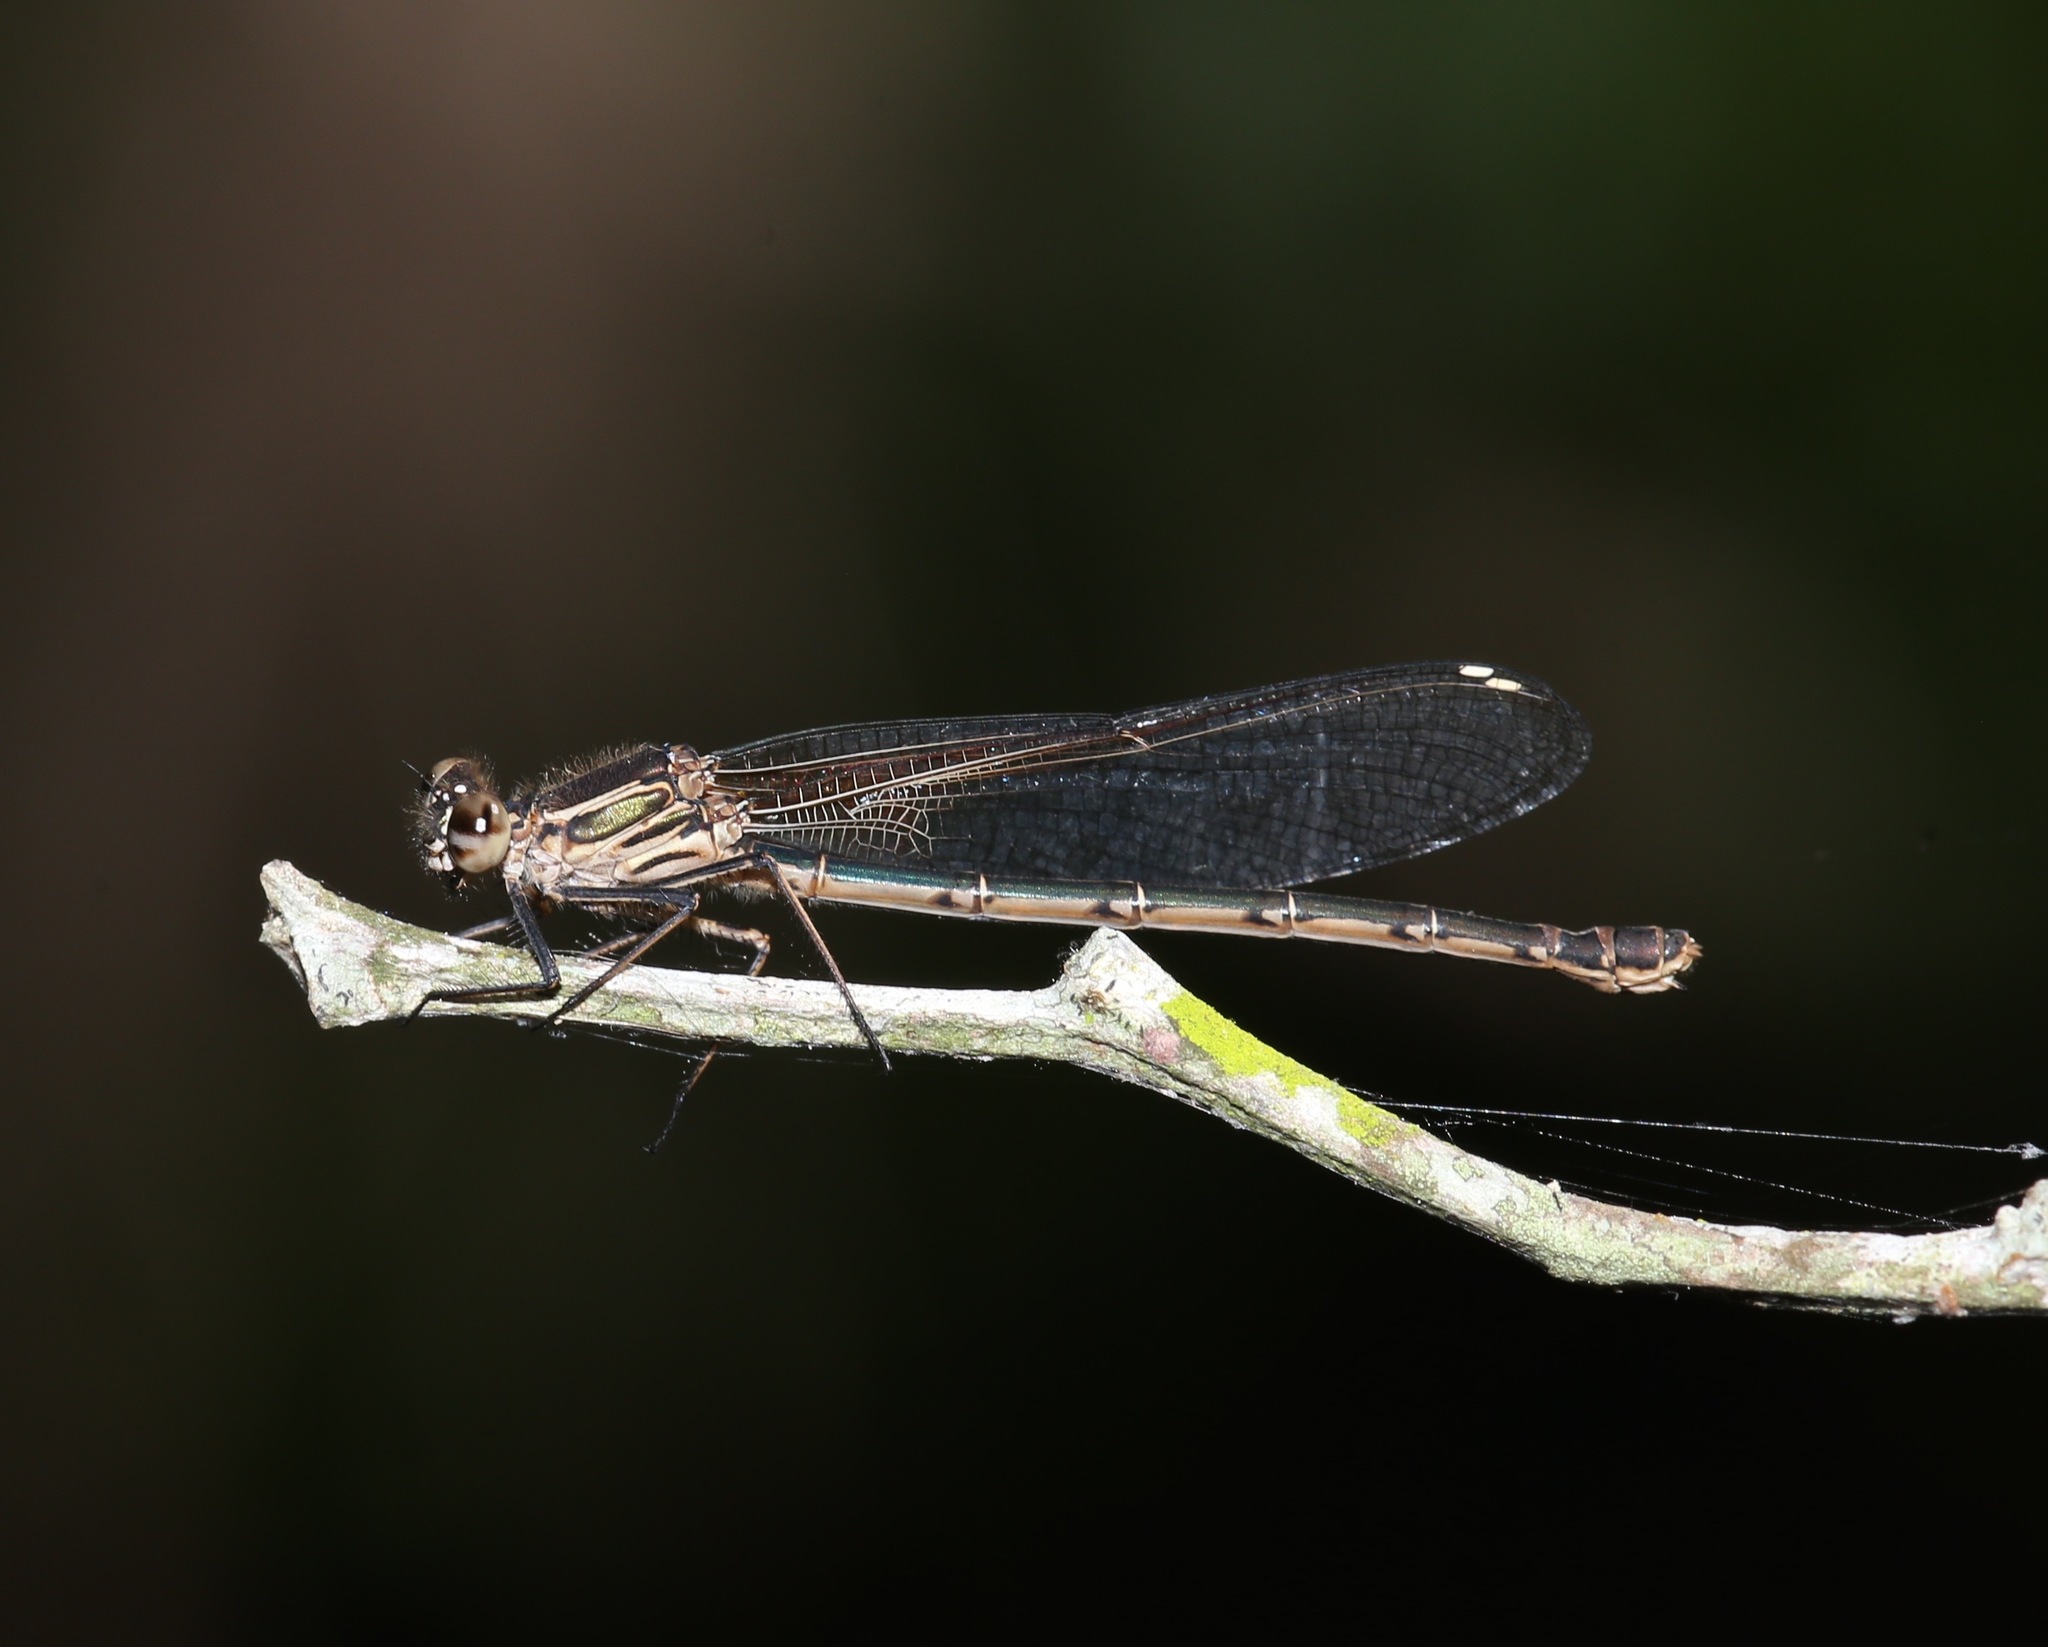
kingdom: Animalia
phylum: Arthropoda
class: Insecta
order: Odonata
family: Calopterygidae
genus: Hetaerina
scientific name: Hetaerina americana
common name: American rubyspot
